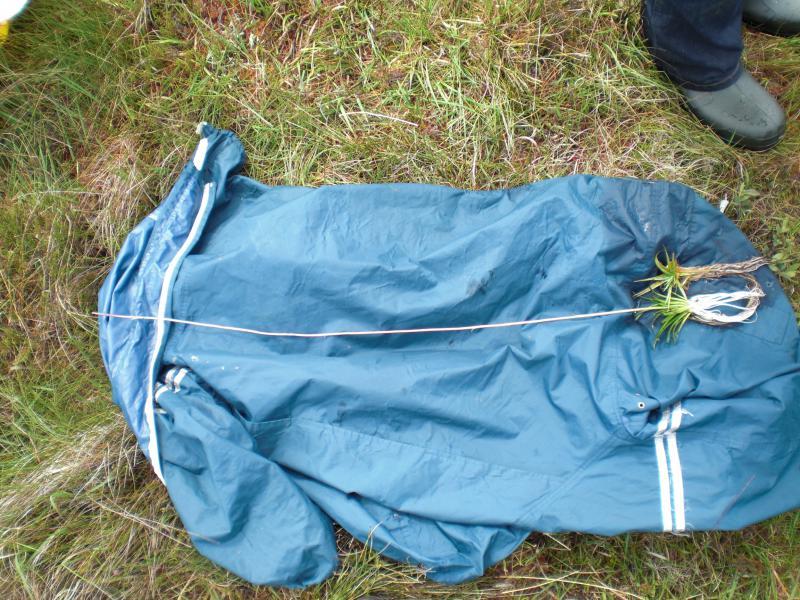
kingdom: Plantae
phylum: Tracheophyta
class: Magnoliopsida
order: Asterales
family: Campanulaceae
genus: Lobelia
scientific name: Lobelia dortmanna
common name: Water lobelia
